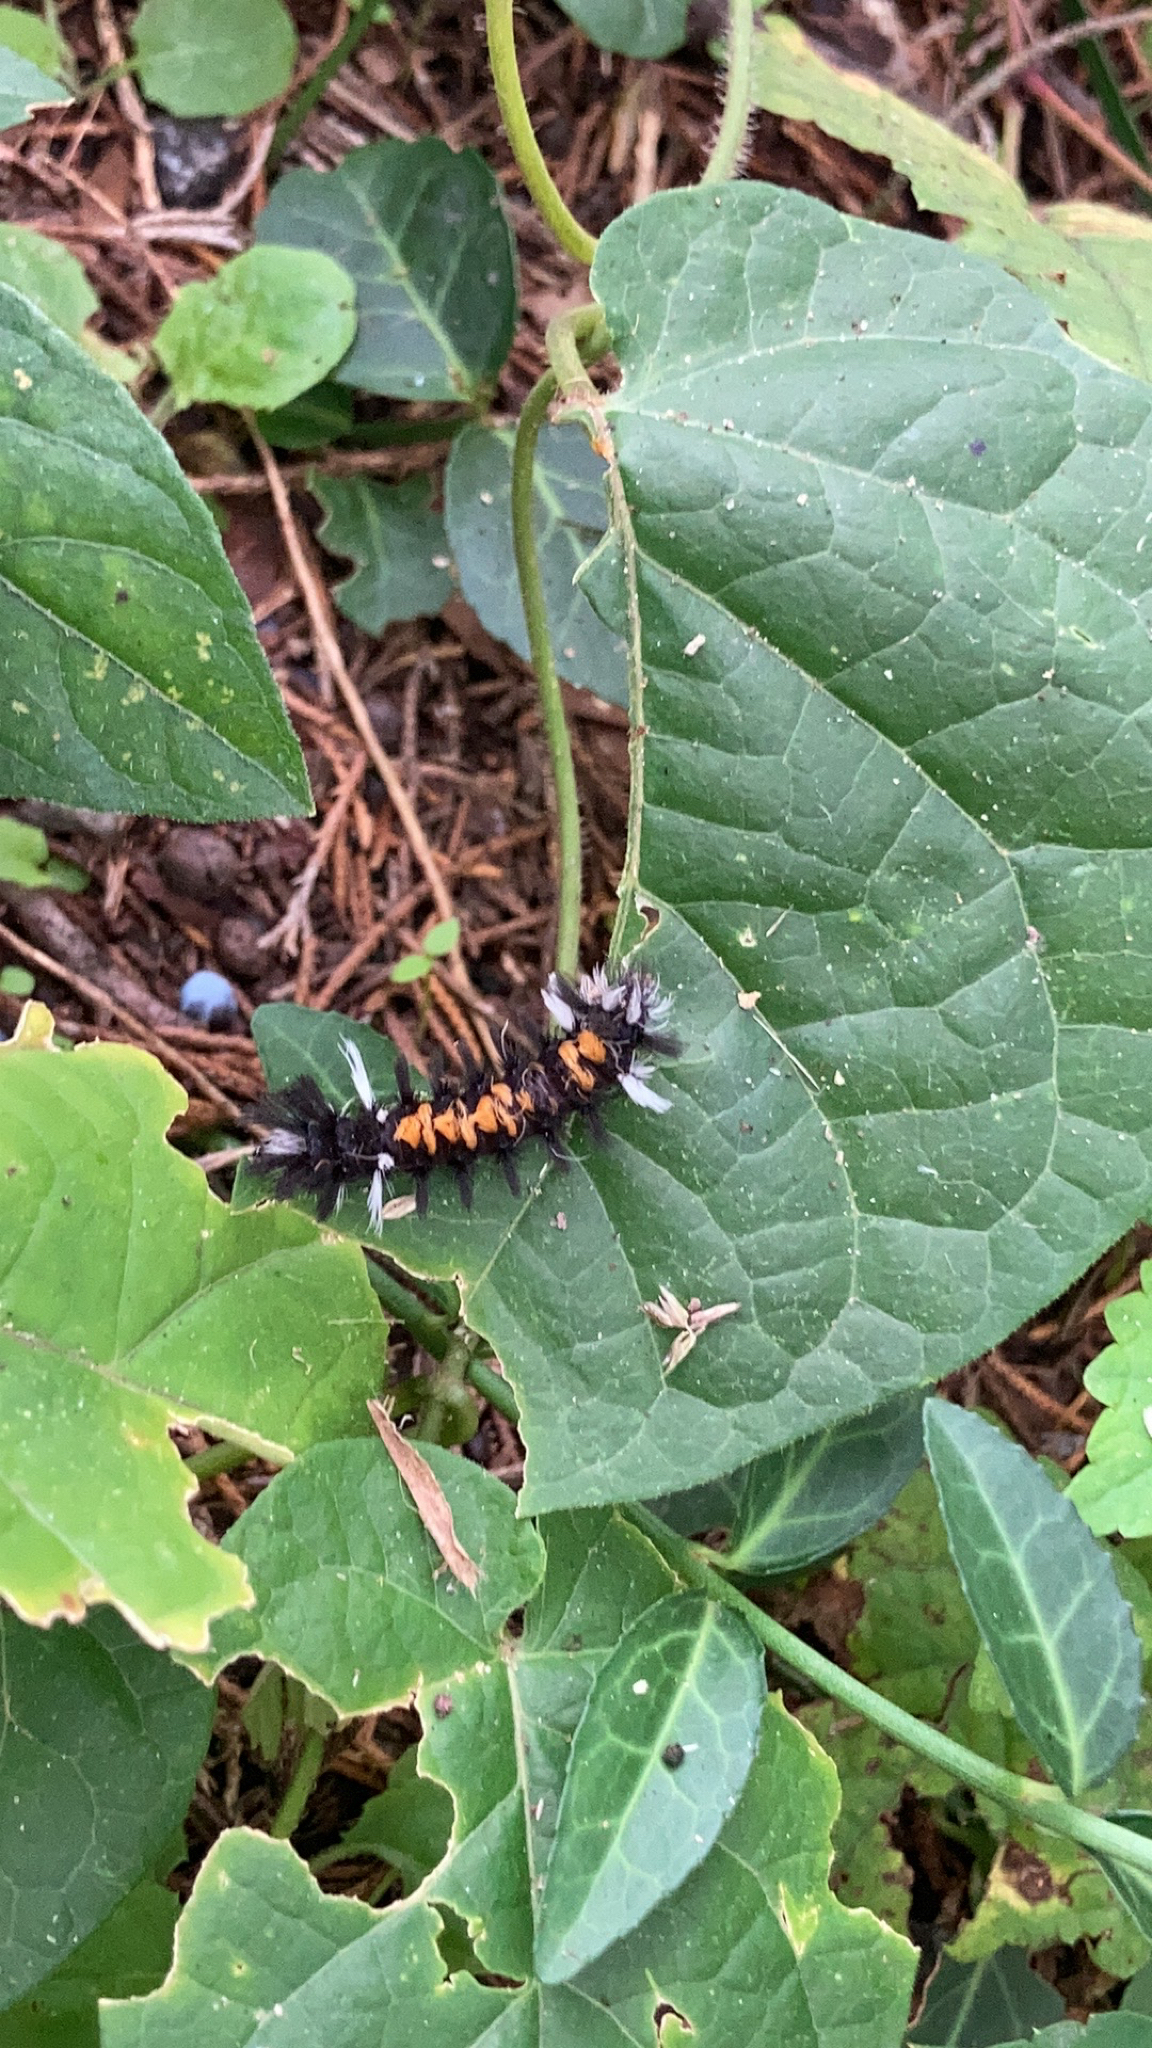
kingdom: Animalia
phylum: Arthropoda
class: Insecta
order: Lepidoptera
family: Erebidae
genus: Euchaetes
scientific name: Euchaetes egle
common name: Milkweed tussock moth
